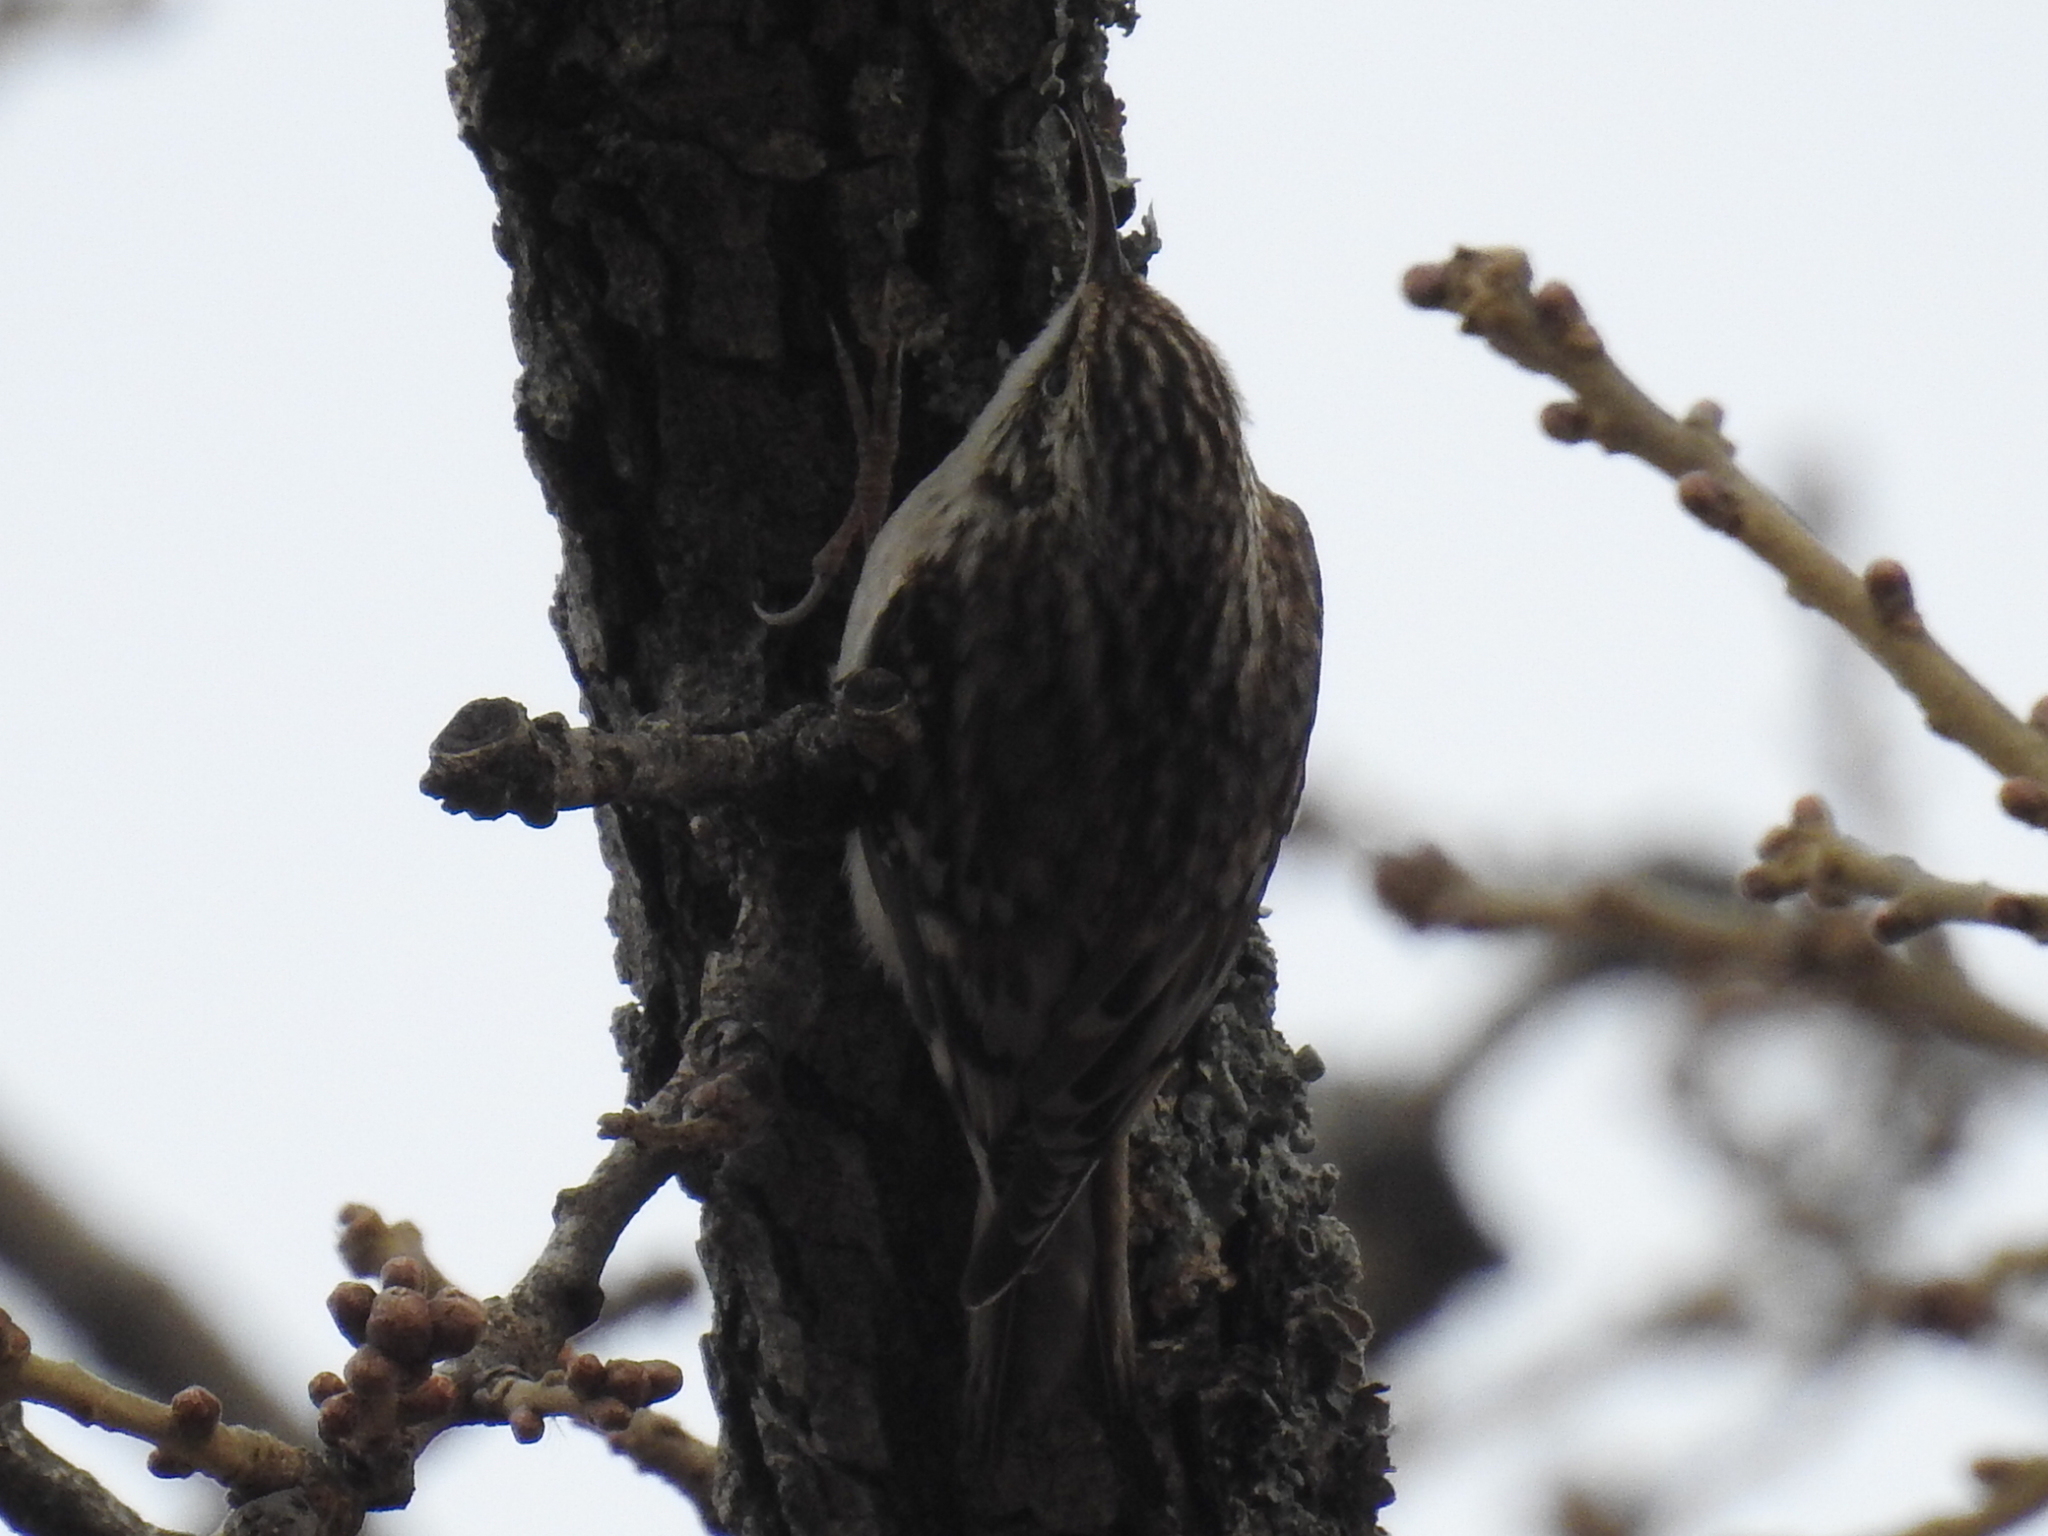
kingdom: Animalia
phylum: Chordata
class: Aves
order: Passeriformes
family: Certhiidae
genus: Certhia
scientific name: Certhia americana
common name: Brown creeper
